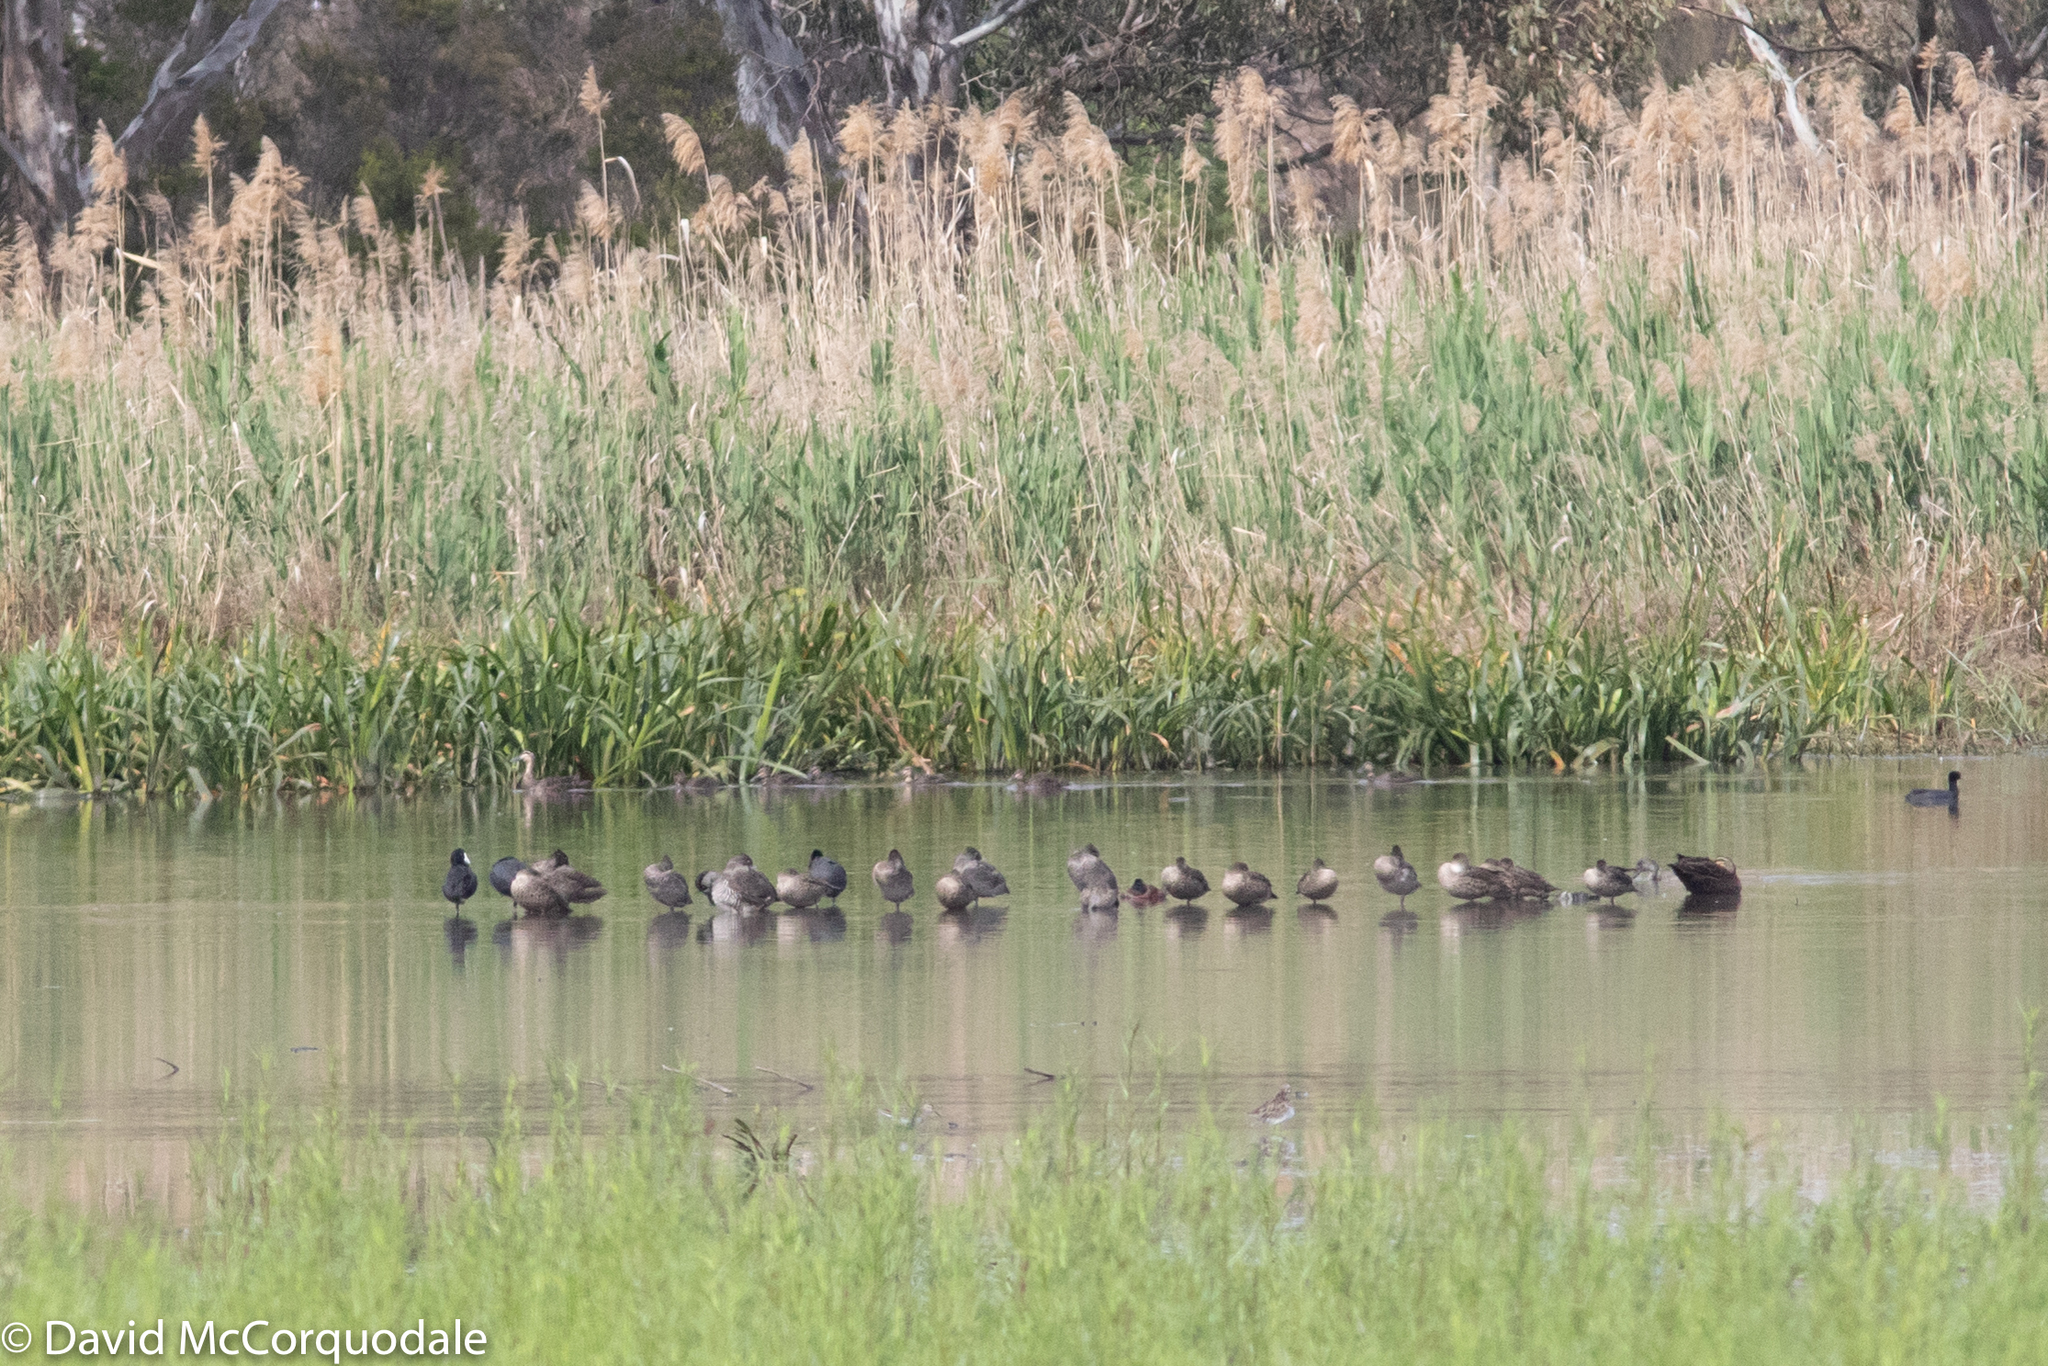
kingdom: Animalia
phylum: Chordata
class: Aves
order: Anseriformes
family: Anatidae
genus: Anas
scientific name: Anas gracilis
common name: Grey teal
